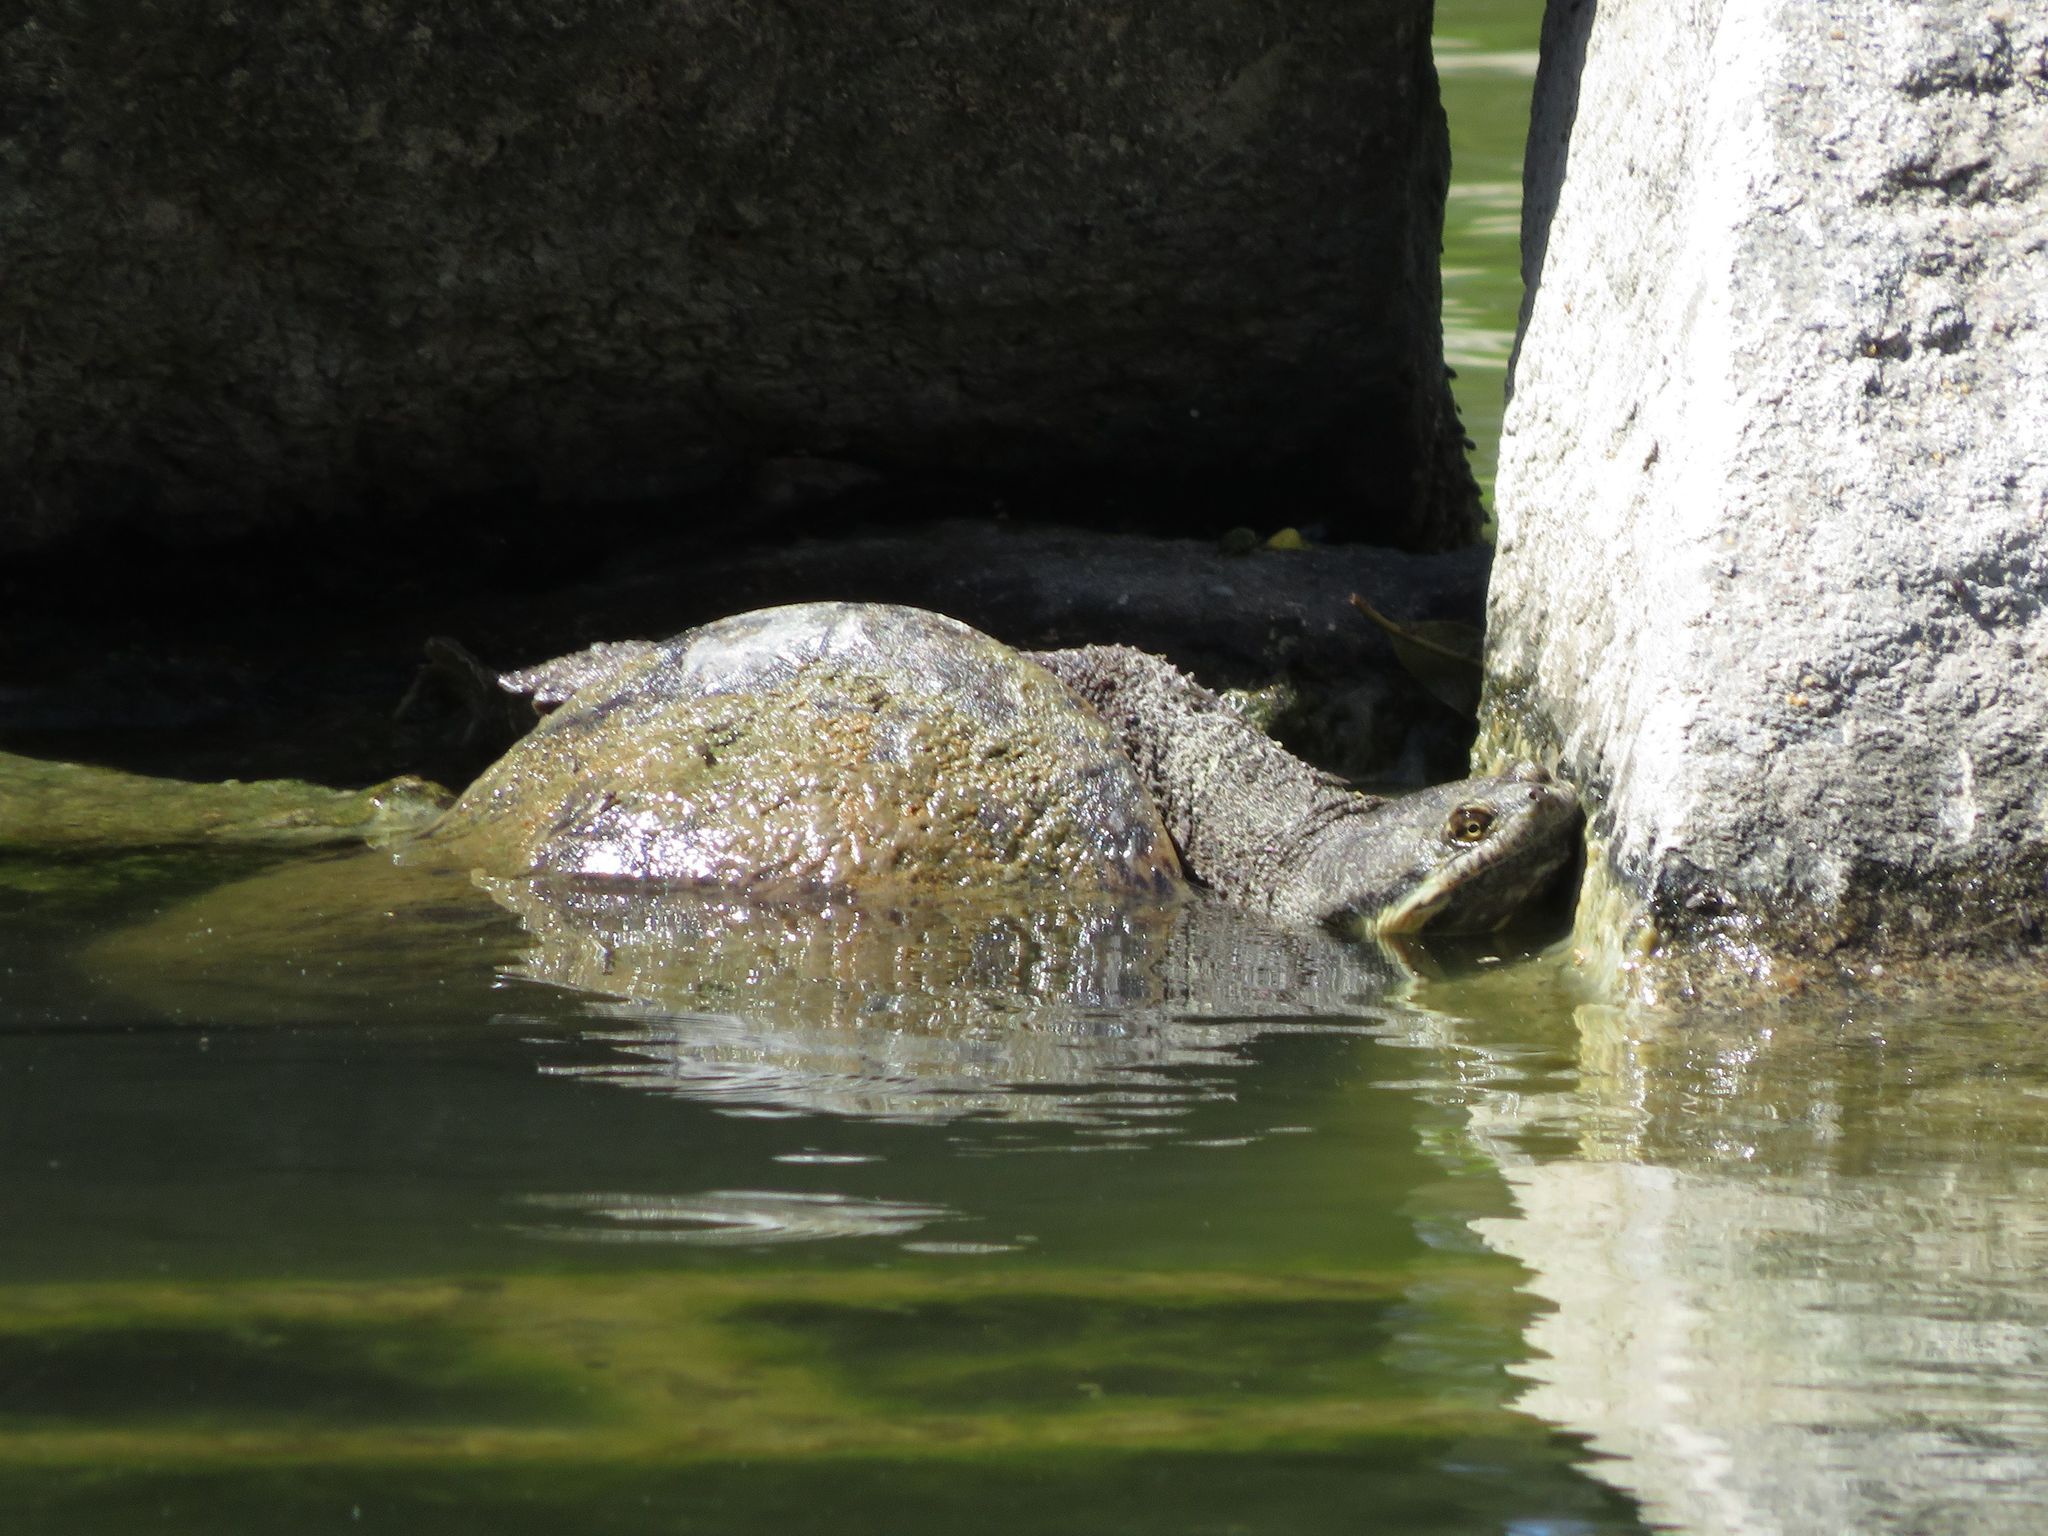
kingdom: Animalia
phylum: Chordata
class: Testudines
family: Chelidae
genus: Hydromedusa
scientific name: Hydromedusa tectifera
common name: Argentine snake-necked turtle
